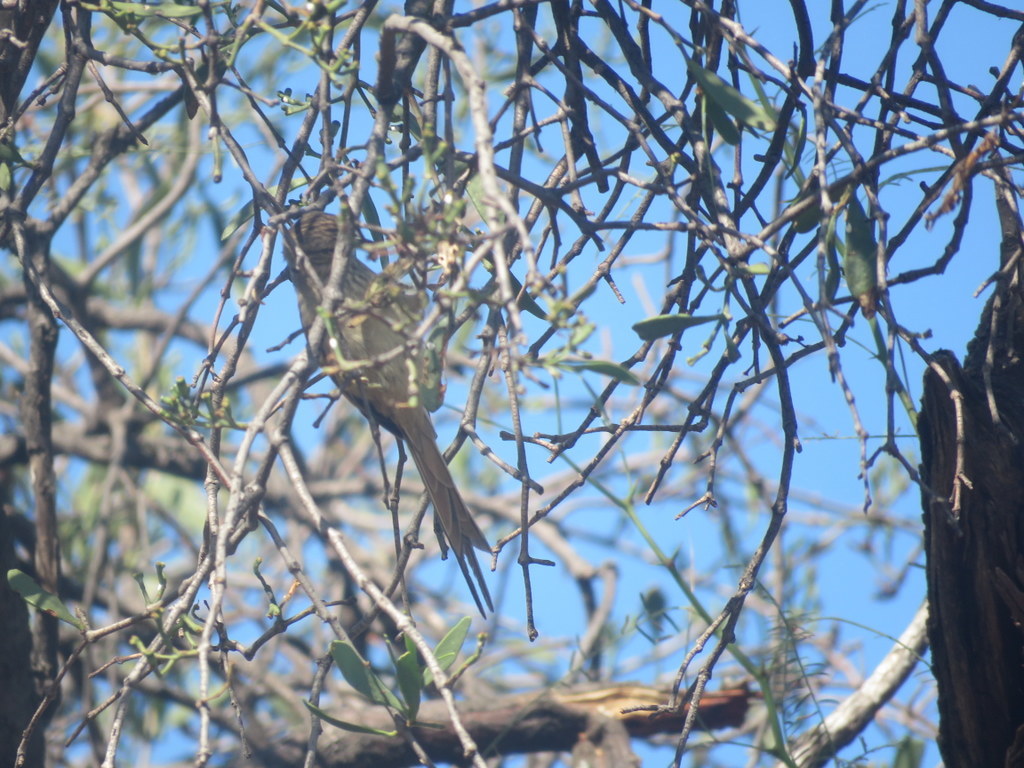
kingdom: Animalia
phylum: Chordata
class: Aves
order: Passeriformes
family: Furnariidae
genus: Leptasthenura
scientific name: Leptasthenura platensis
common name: Tufted tit-spinetail
